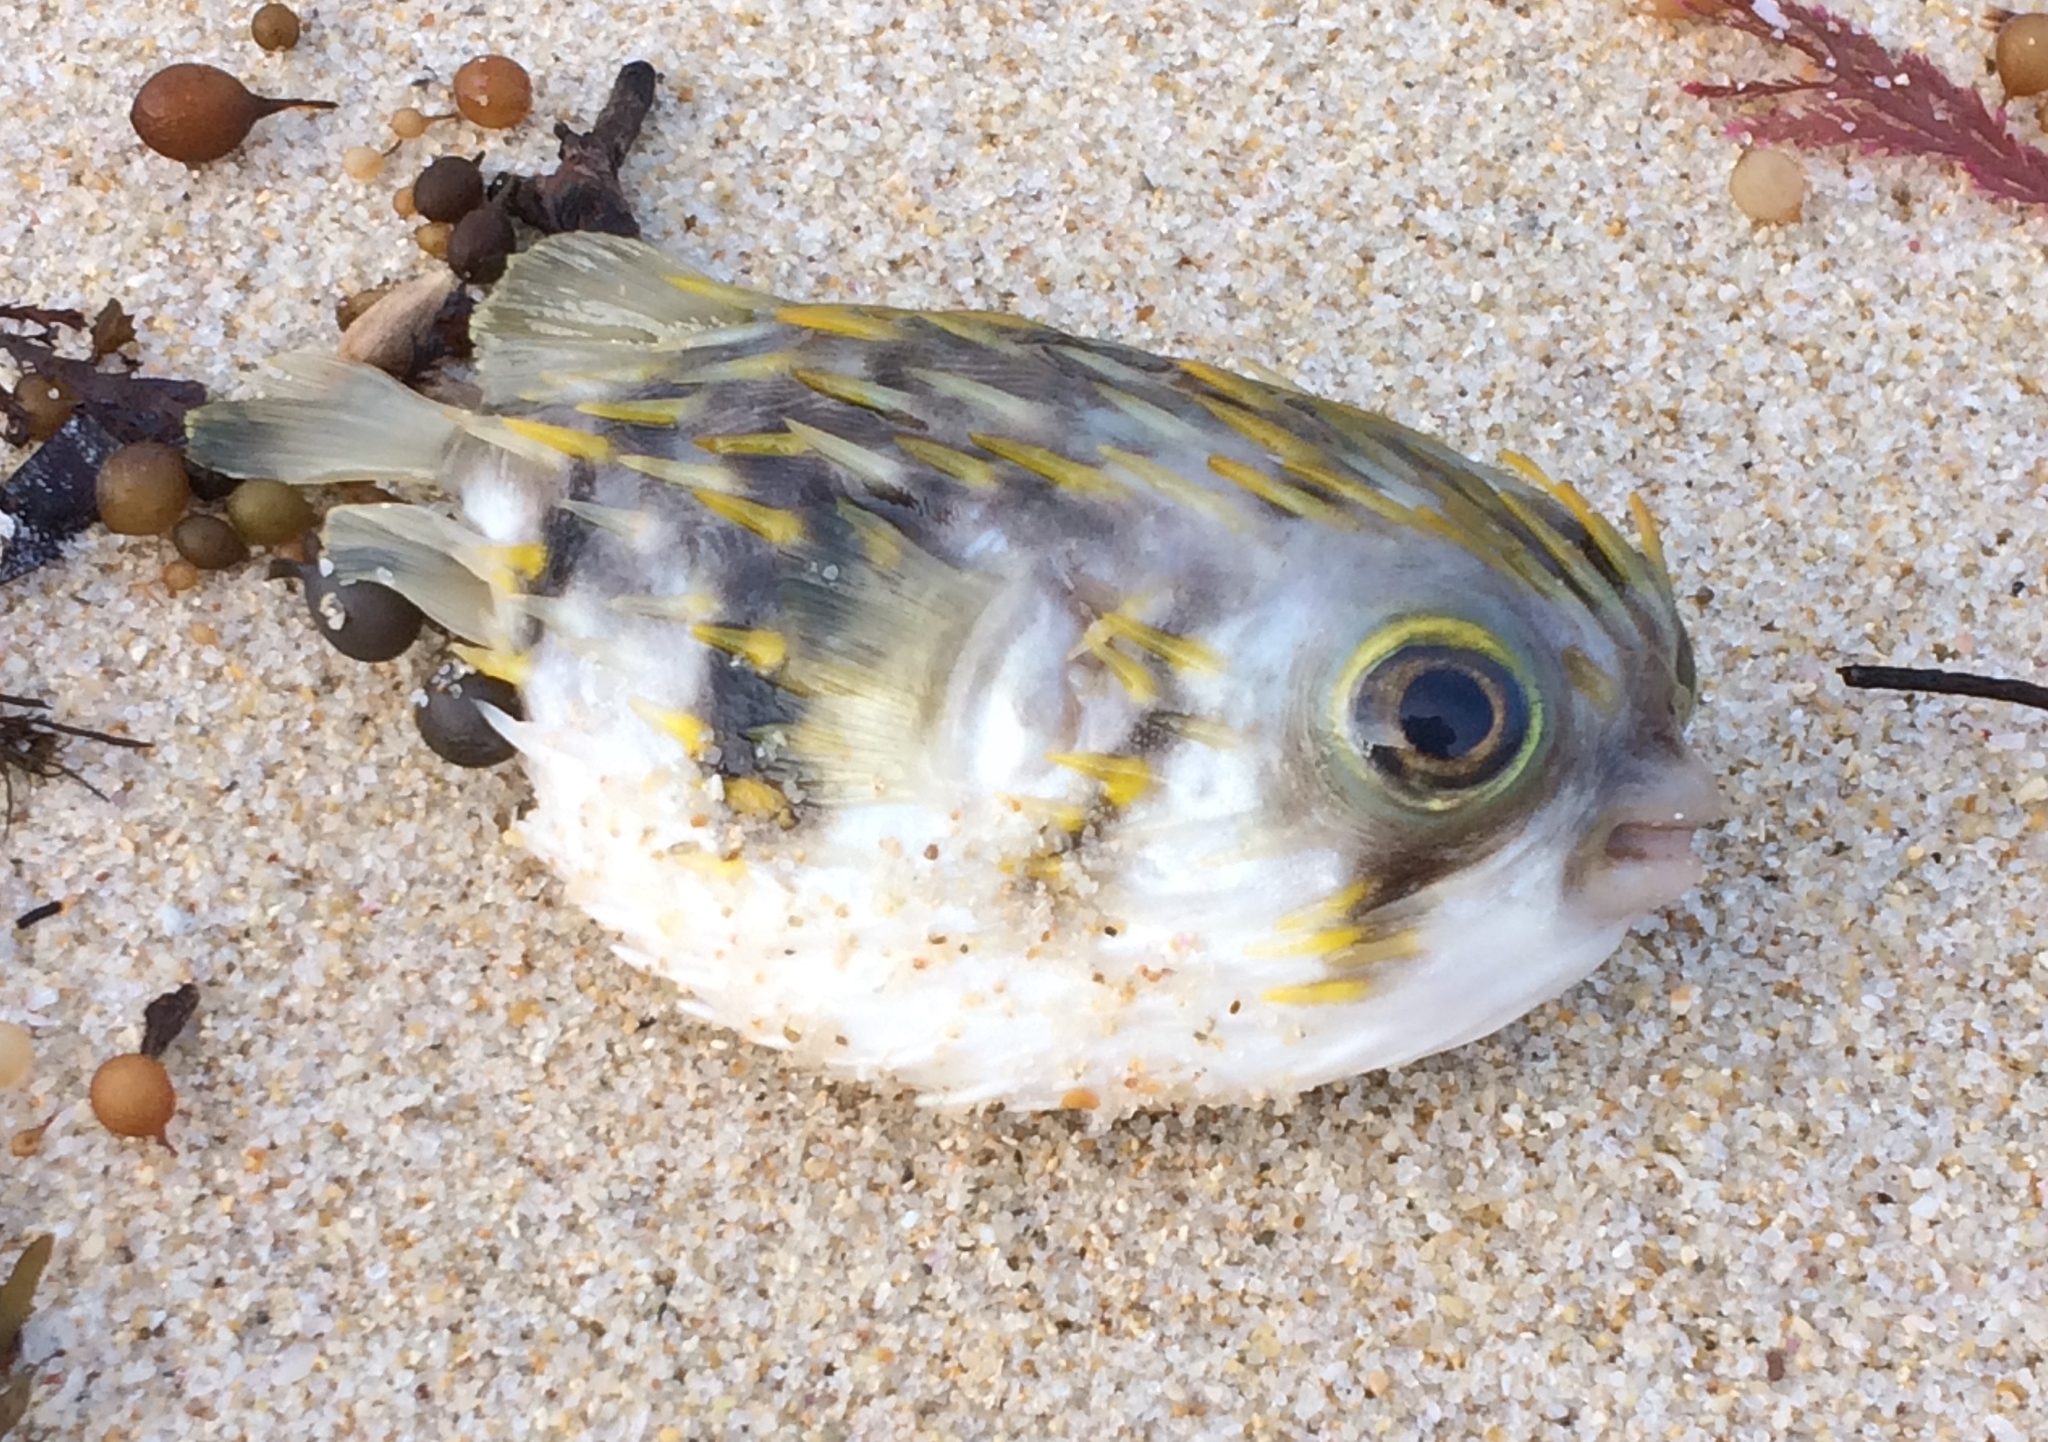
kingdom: Animalia
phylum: Chordata
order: Tetraodontiformes
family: Diodontidae
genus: Diodon
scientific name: Diodon nicthemerus
